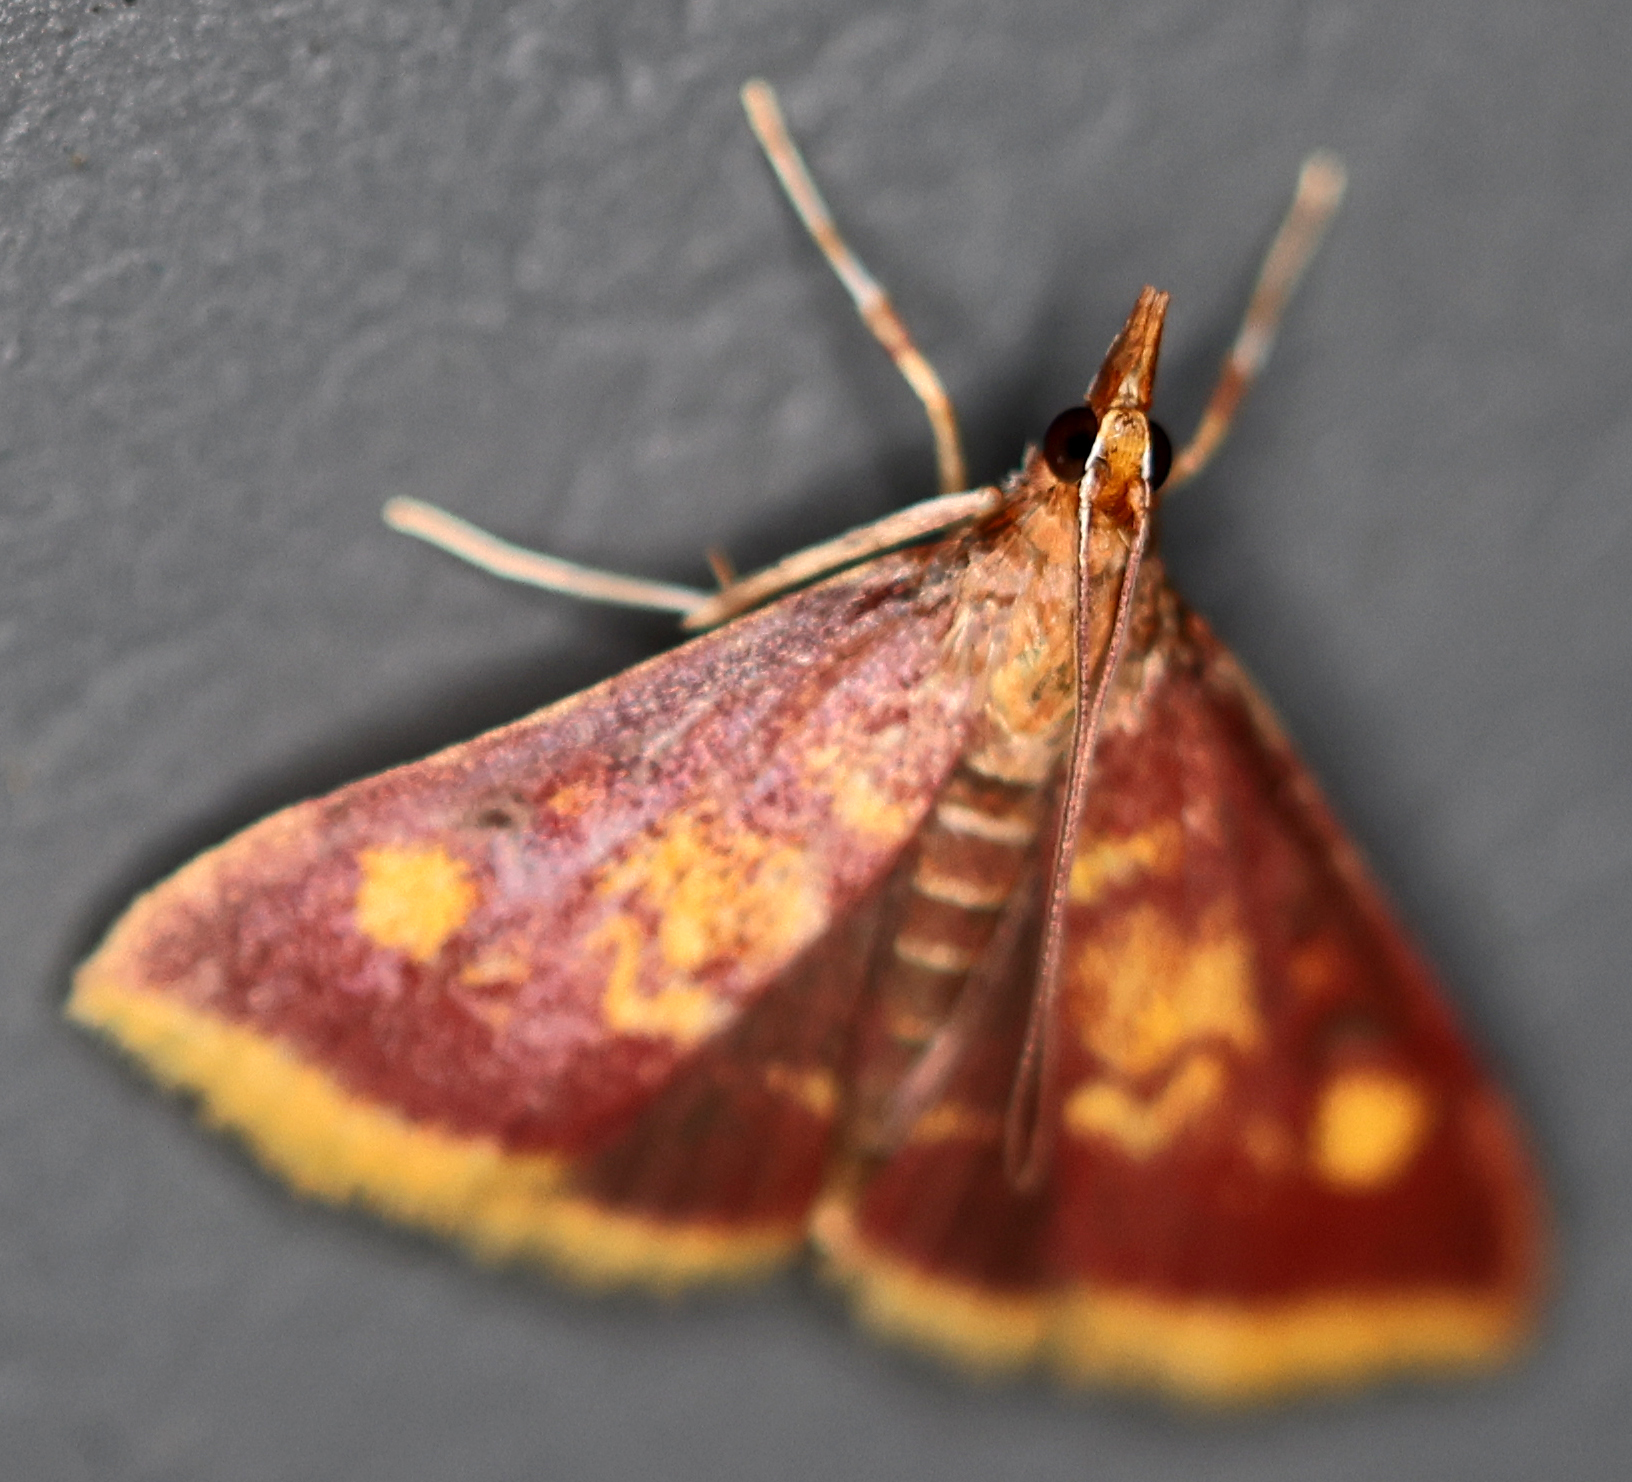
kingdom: Animalia
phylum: Arthropoda
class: Insecta
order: Lepidoptera
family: Crambidae
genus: Pyrausta
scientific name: Pyrausta acrionalis
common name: Mint-loving pyrausta moth
